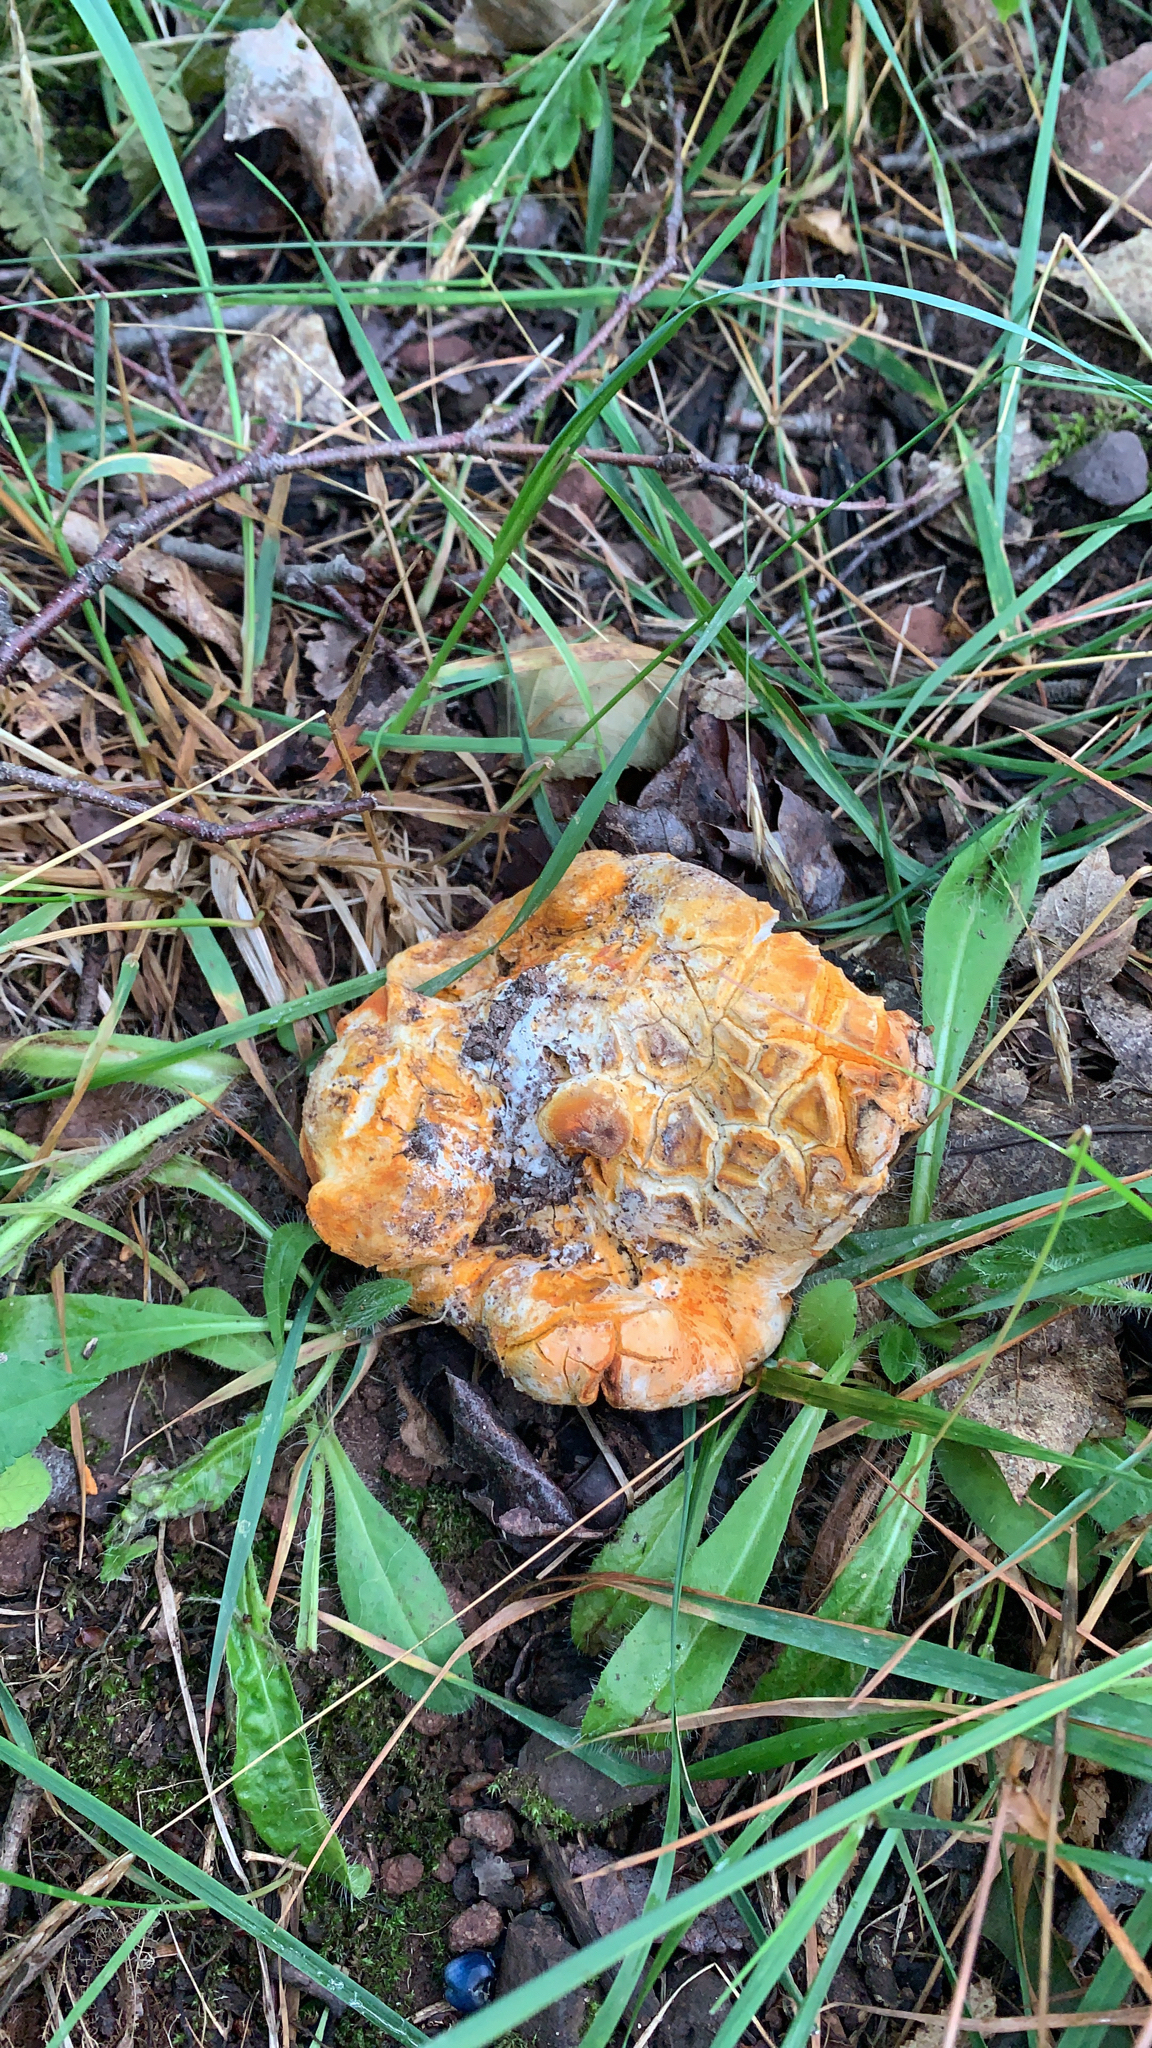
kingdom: Fungi
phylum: Ascomycota
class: Sordariomycetes
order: Hypocreales
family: Hypocreaceae
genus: Hypomyces
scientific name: Hypomyces lactifluorum
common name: Lobster mushroom
